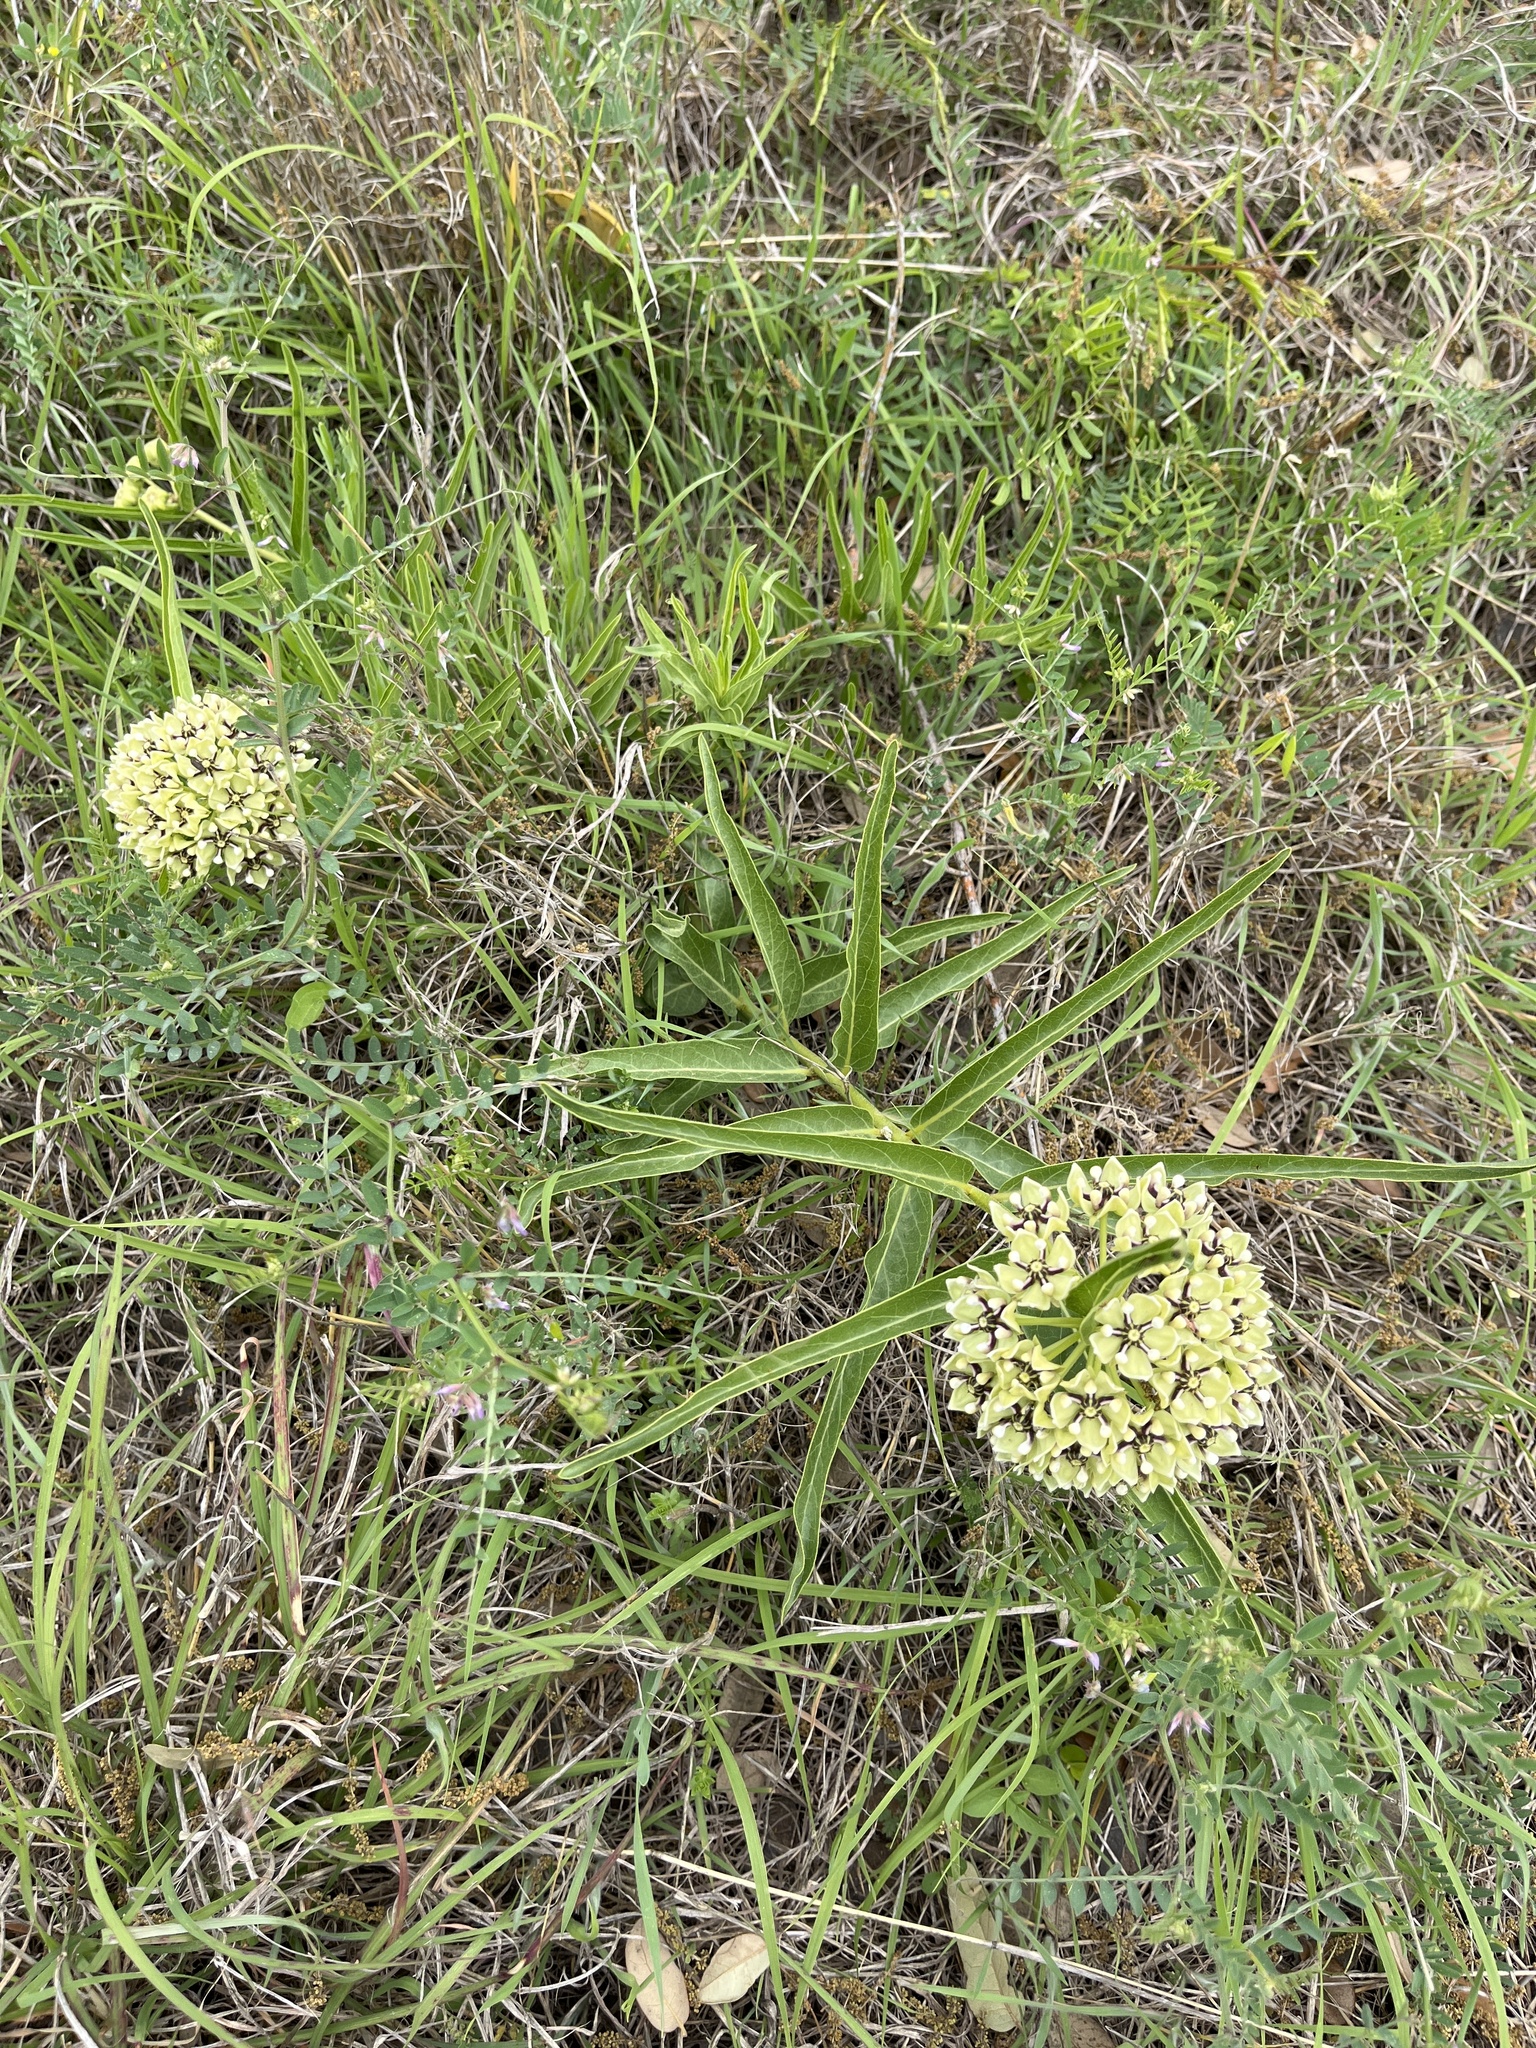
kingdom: Plantae
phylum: Tracheophyta
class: Magnoliopsida
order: Gentianales
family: Apocynaceae
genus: Asclepias
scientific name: Asclepias asperula
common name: Antelope horns
